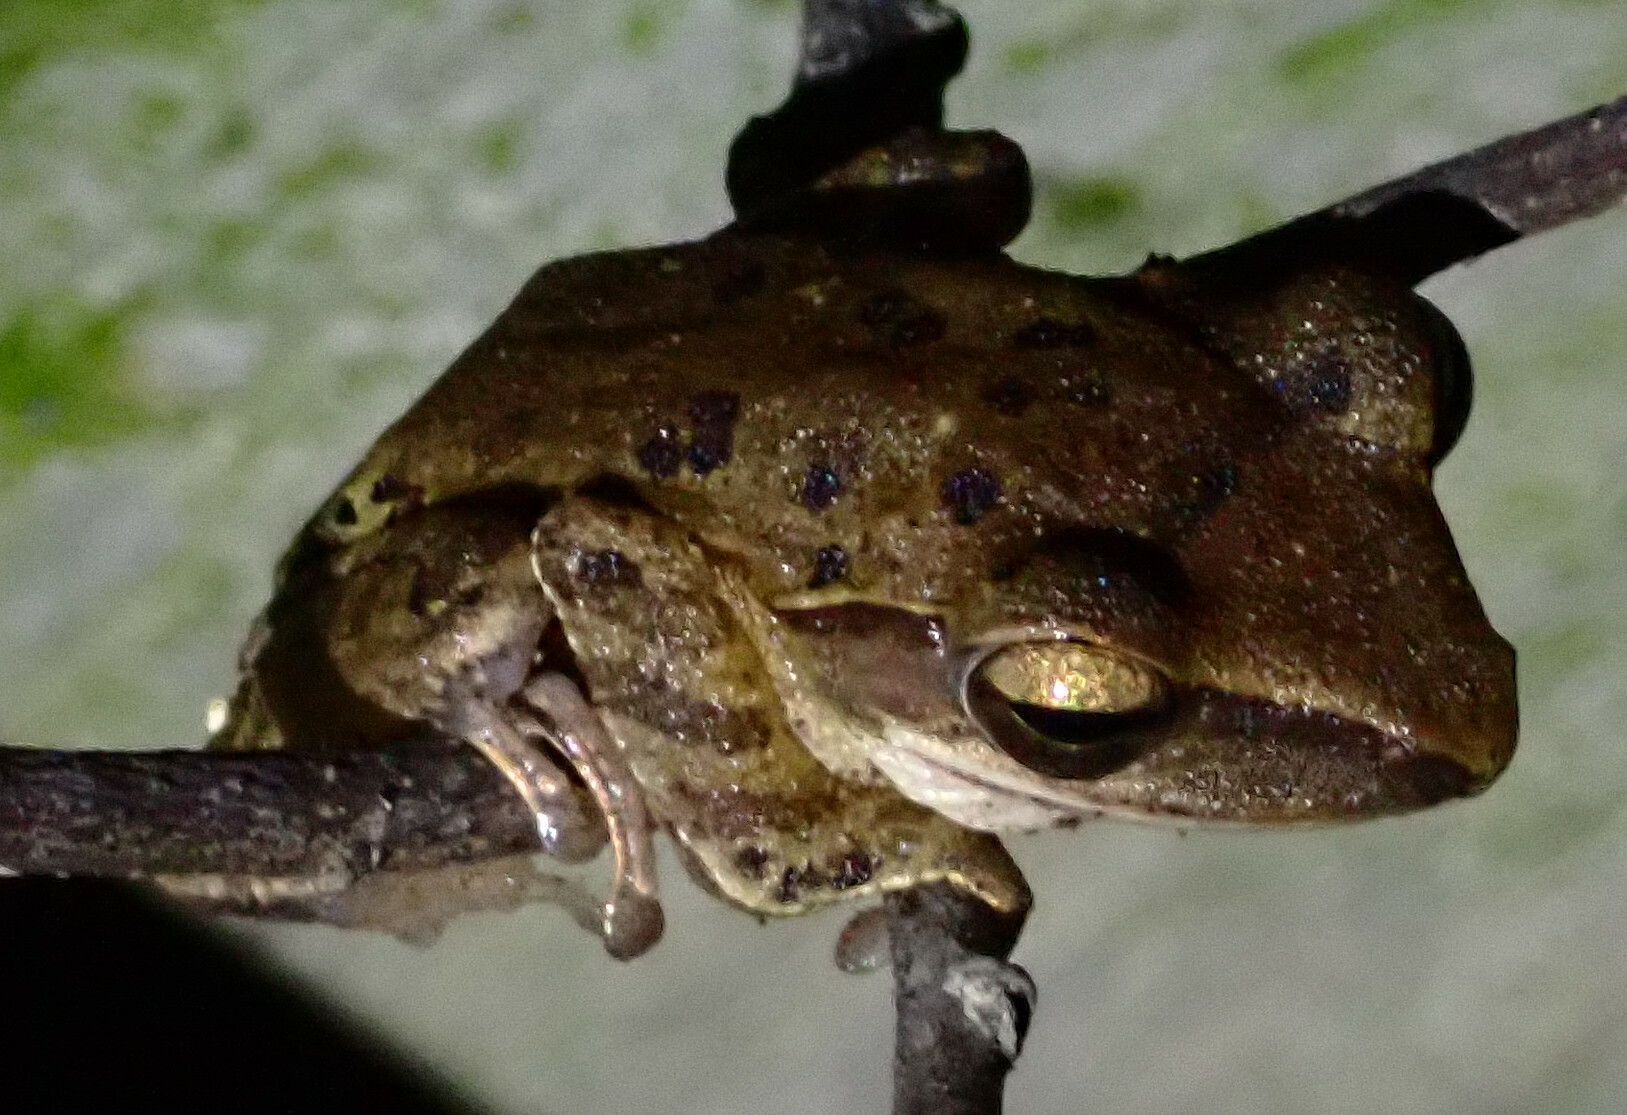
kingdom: Animalia
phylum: Chordata
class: Amphibia
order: Anura
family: Rhacophoridae
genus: Polypedates
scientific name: Polypedates leucomystax
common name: Common tree frog/four-lined tree frog
